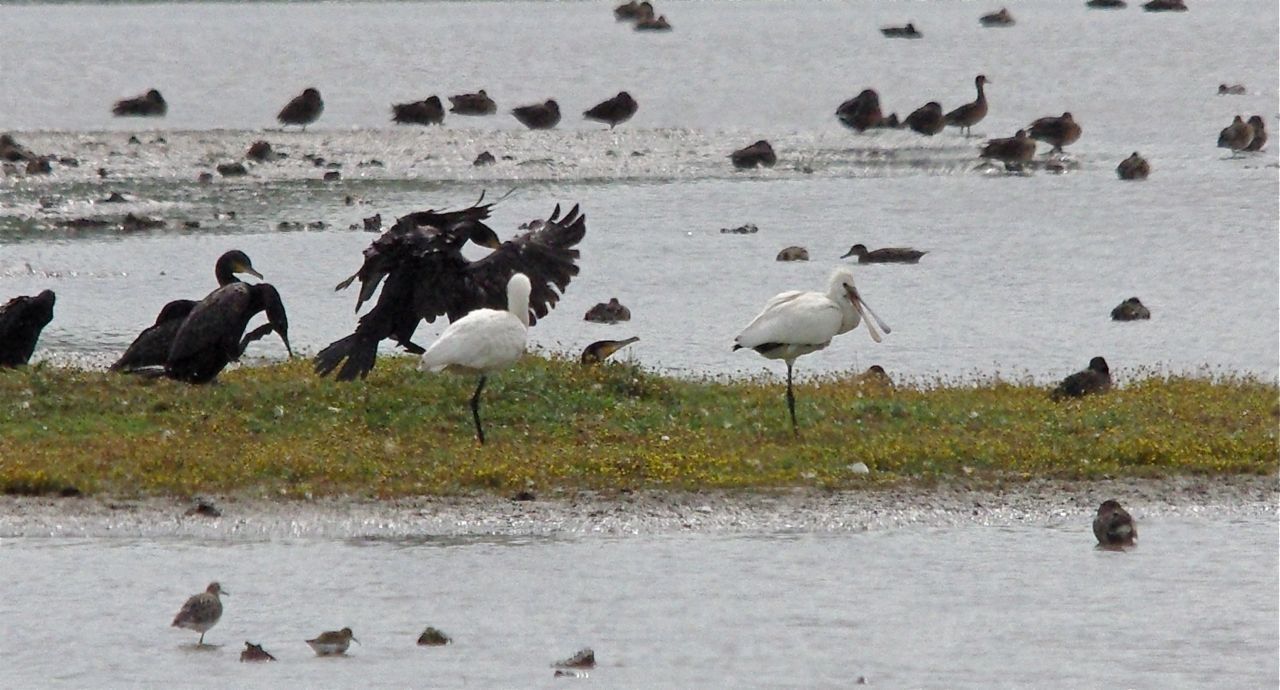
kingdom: Animalia
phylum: Chordata
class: Aves
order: Pelecaniformes
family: Threskiornithidae
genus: Platalea
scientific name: Platalea leucorodia
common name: Eurasian spoonbill
